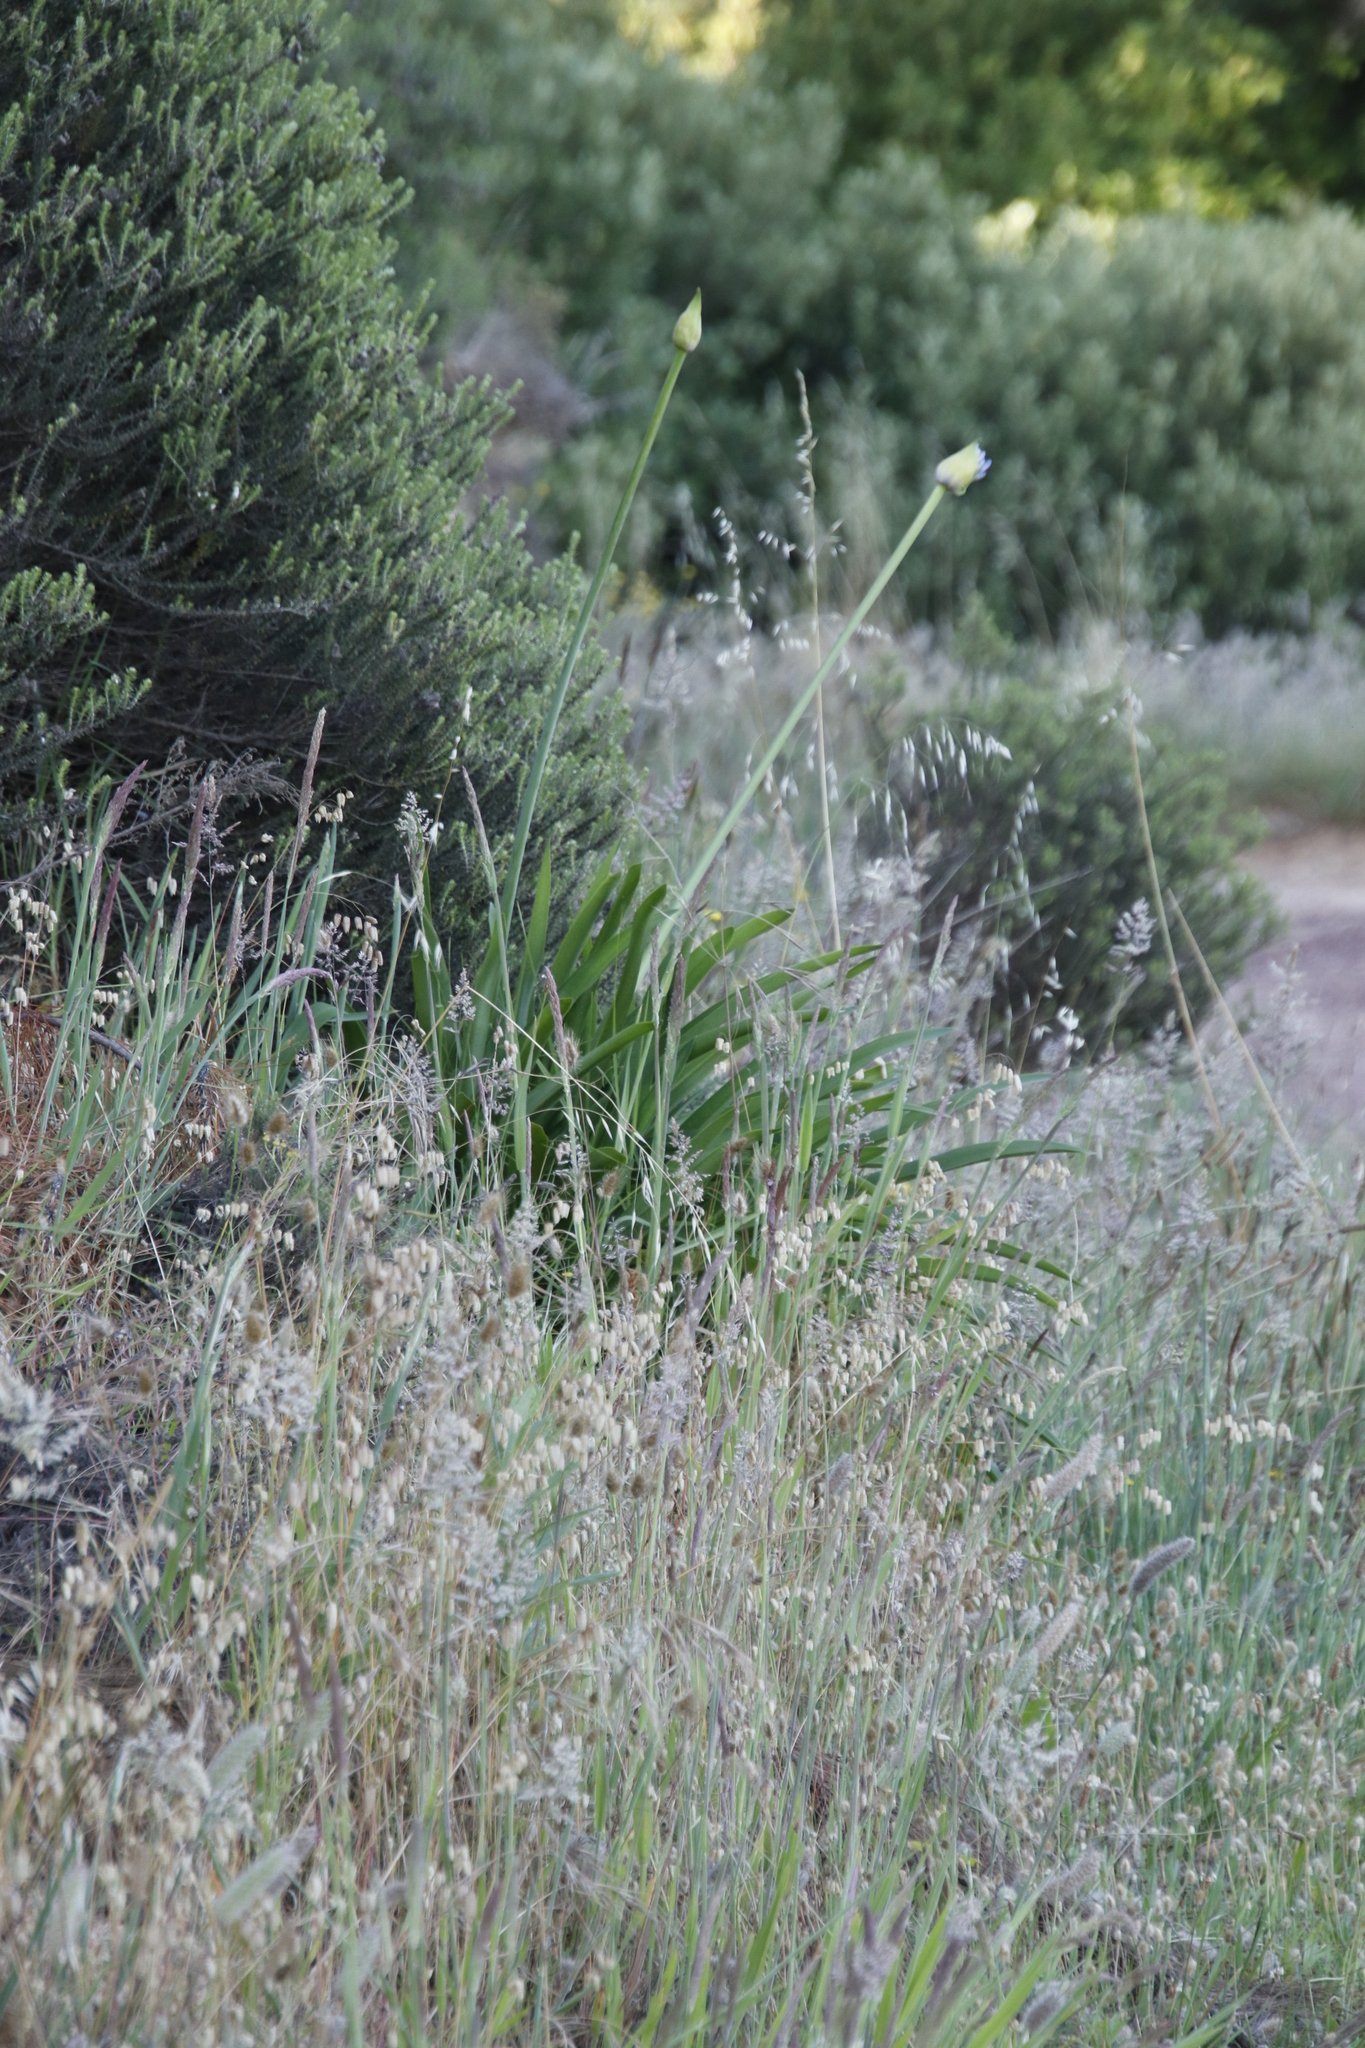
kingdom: Plantae
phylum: Tracheophyta
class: Liliopsida
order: Asparagales
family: Amaryllidaceae
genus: Agapanthus
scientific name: Agapanthus praecox
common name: African-lily
